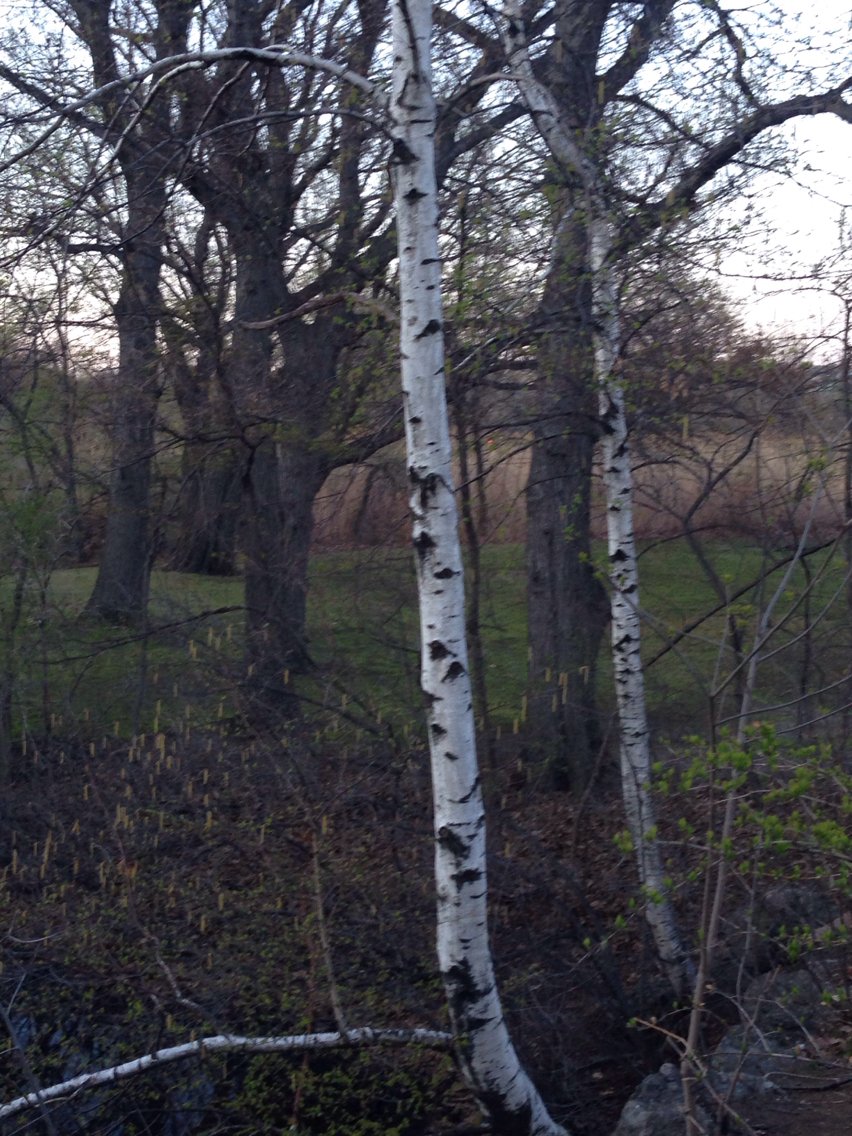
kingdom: Plantae
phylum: Tracheophyta
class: Magnoliopsida
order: Fagales
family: Betulaceae
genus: Betula
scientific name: Betula populifolia
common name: Fire birch
